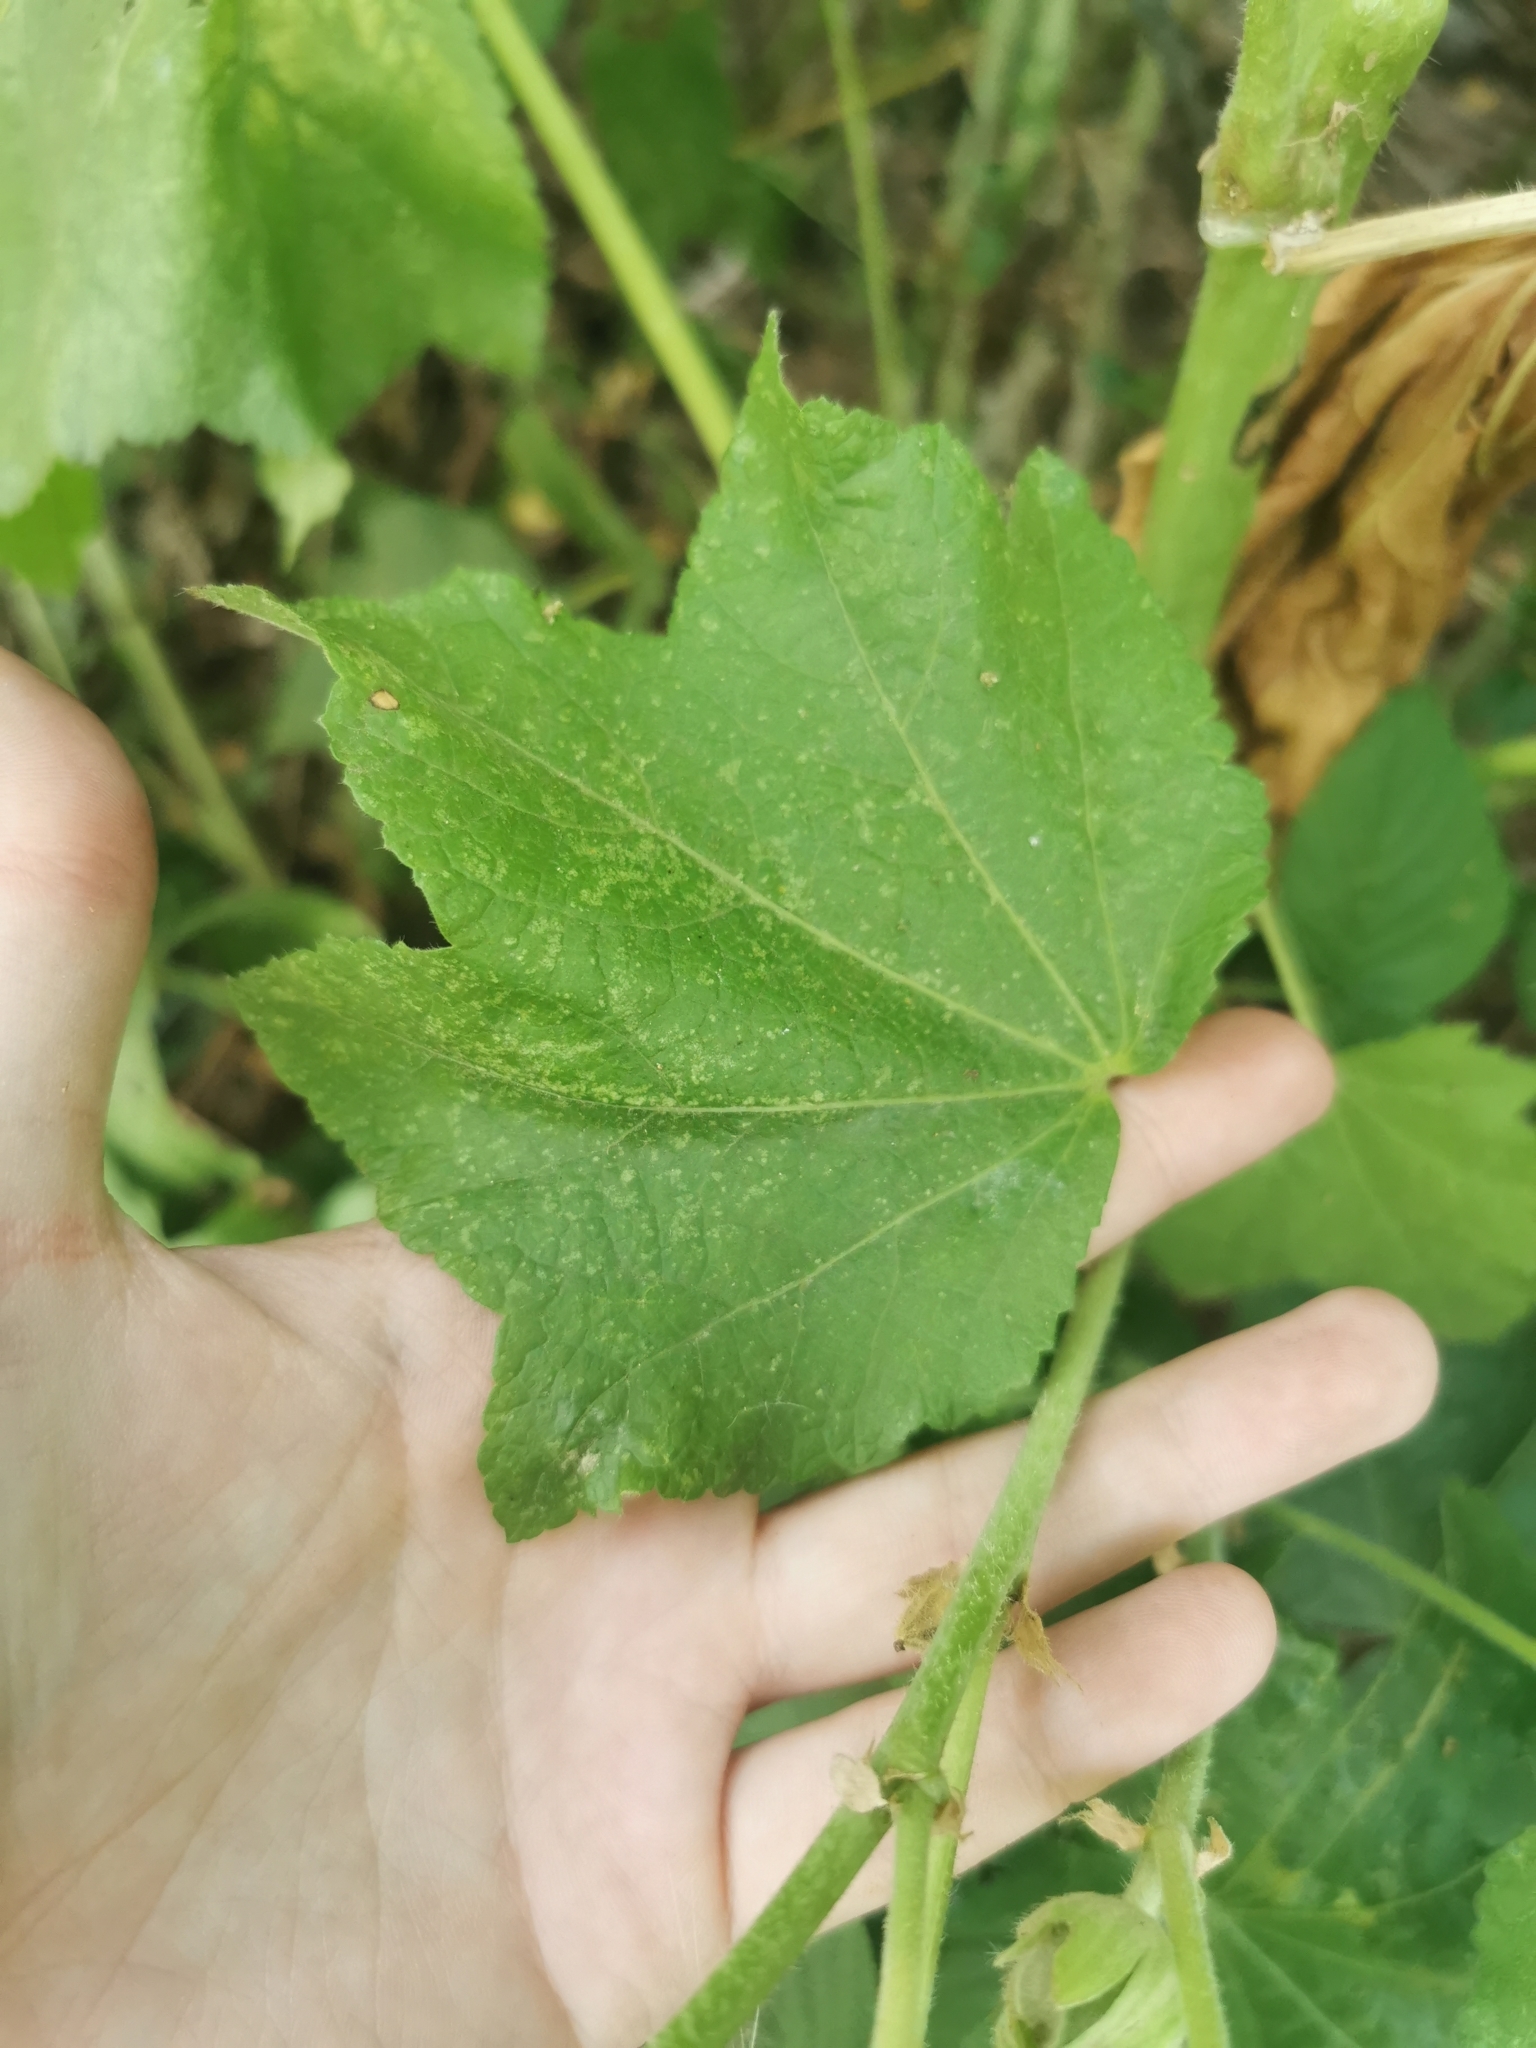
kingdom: Plantae
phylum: Tracheophyta
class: Magnoliopsida
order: Malvales
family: Malvaceae
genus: Alcea
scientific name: Alcea rosea
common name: Hollyhock
